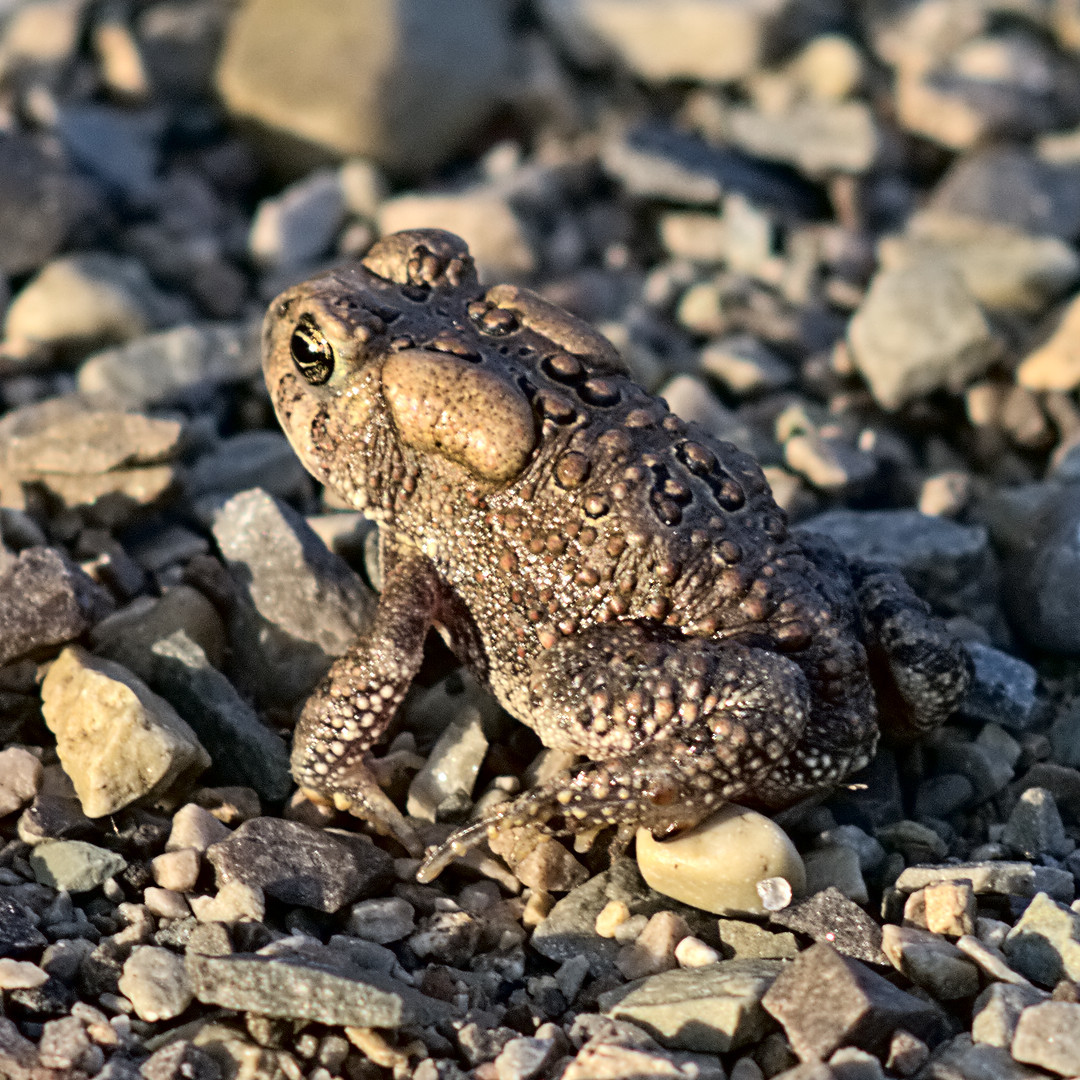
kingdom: Animalia
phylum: Chordata
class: Amphibia
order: Anura
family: Bufonidae
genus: Anaxyrus
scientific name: Anaxyrus americanus
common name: American toad
